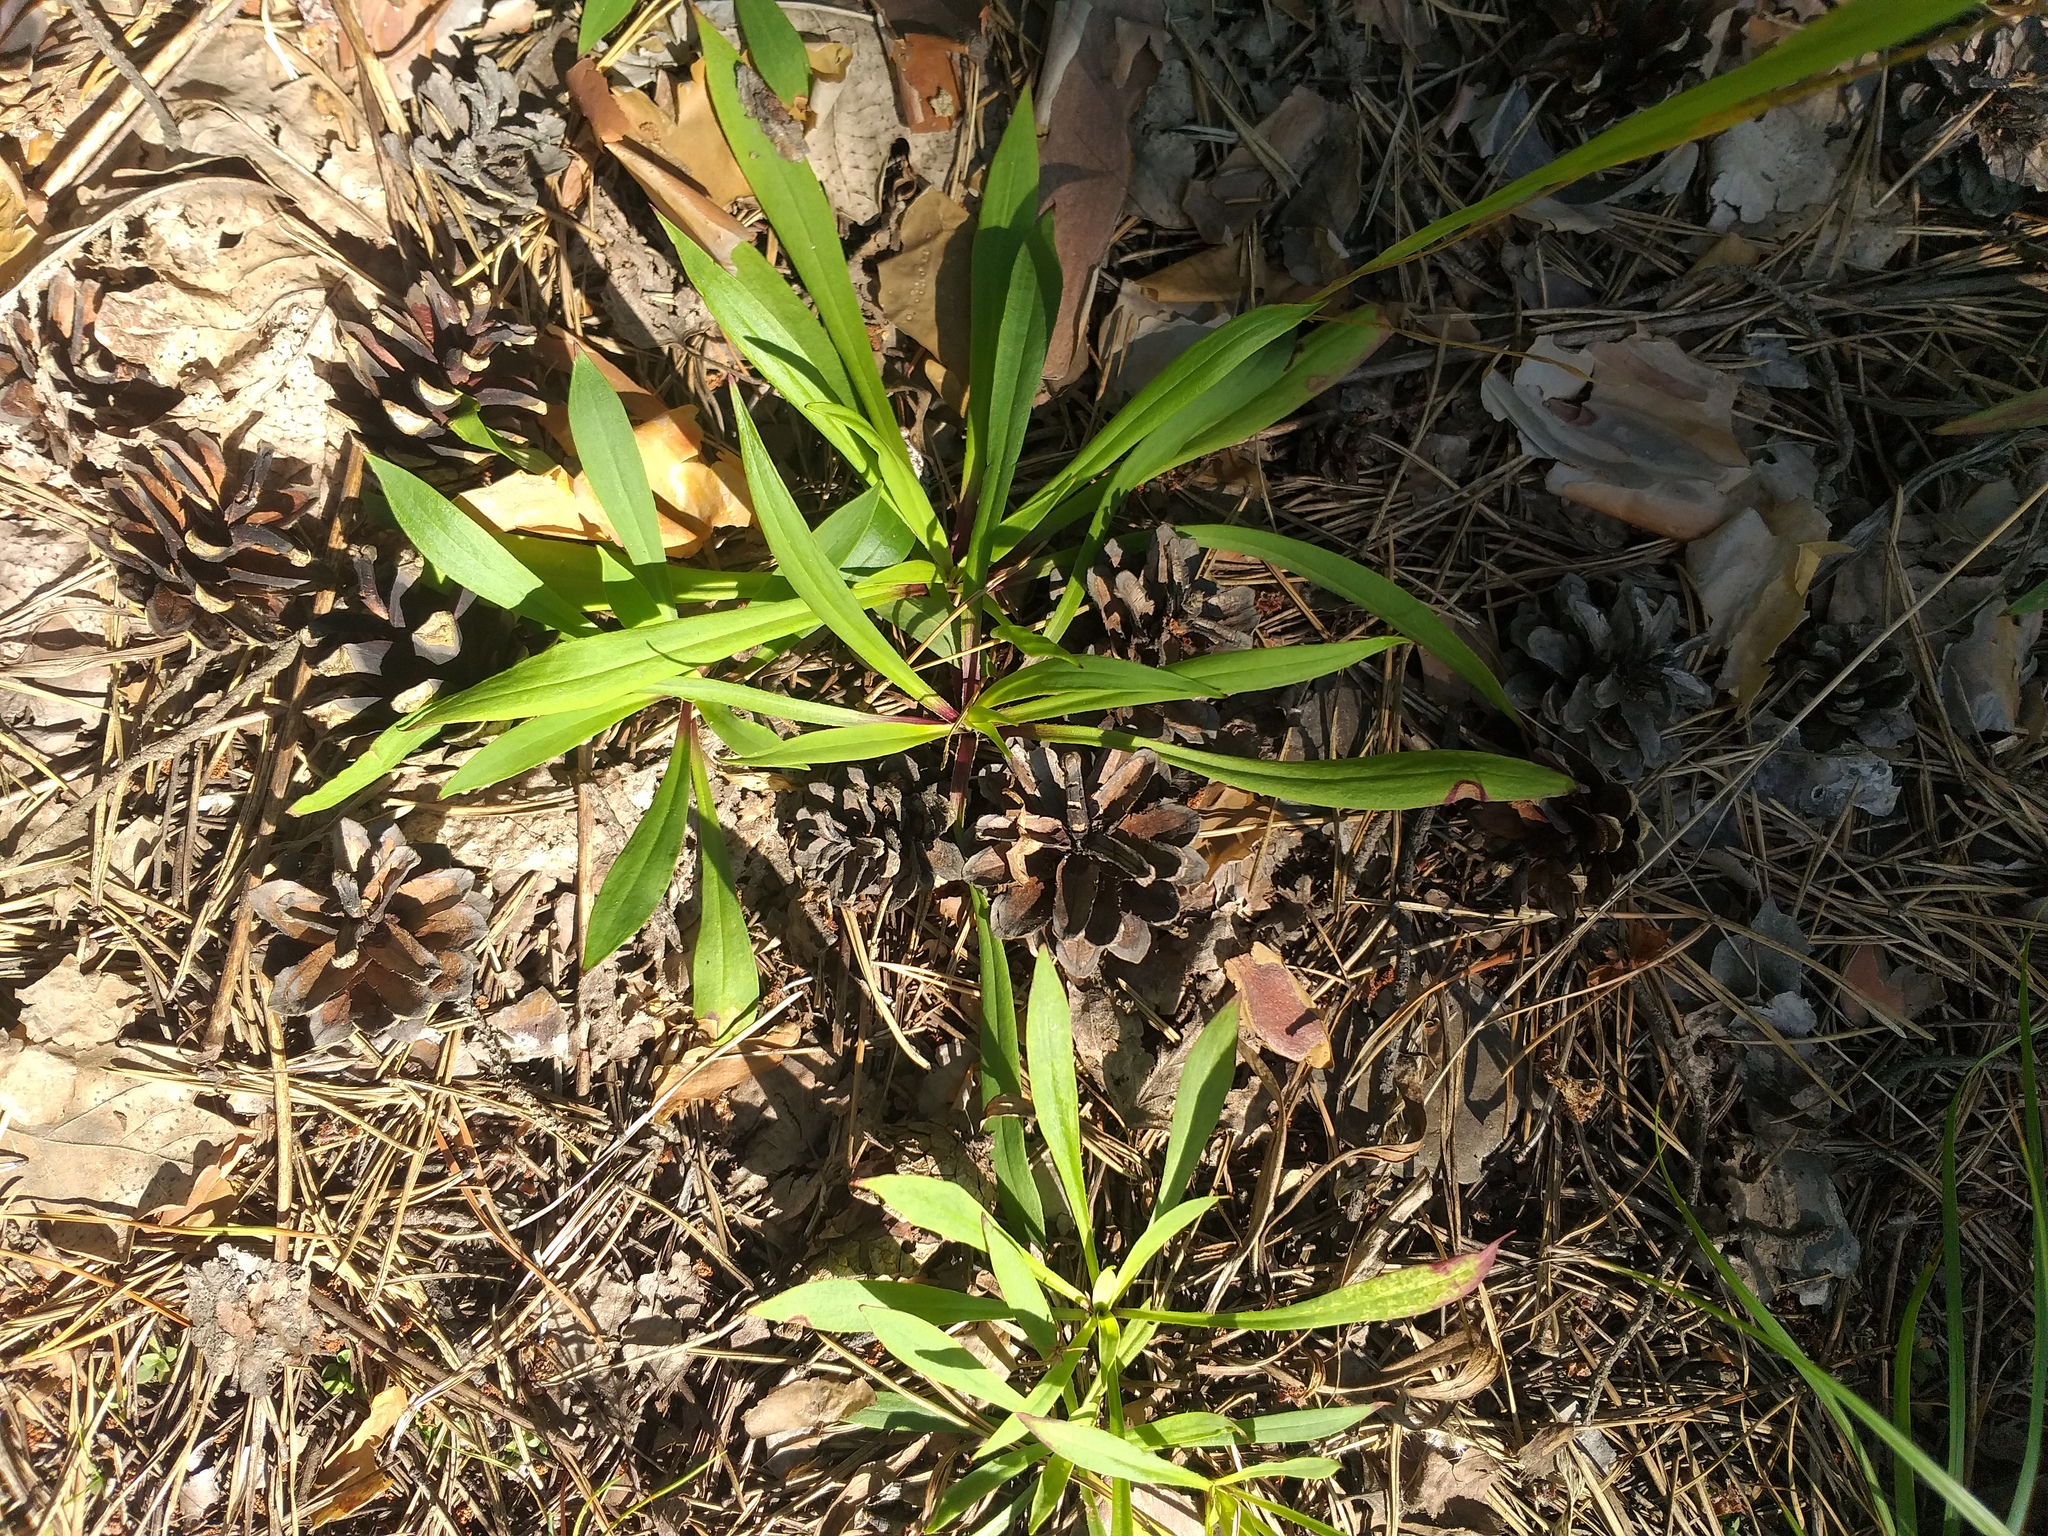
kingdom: Plantae
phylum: Tracheophyta
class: Magnoliopsida
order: Caryophyllales
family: Caryophyllaceae
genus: Viscaria
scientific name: Viscaria vulgaris
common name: Clammy campion
